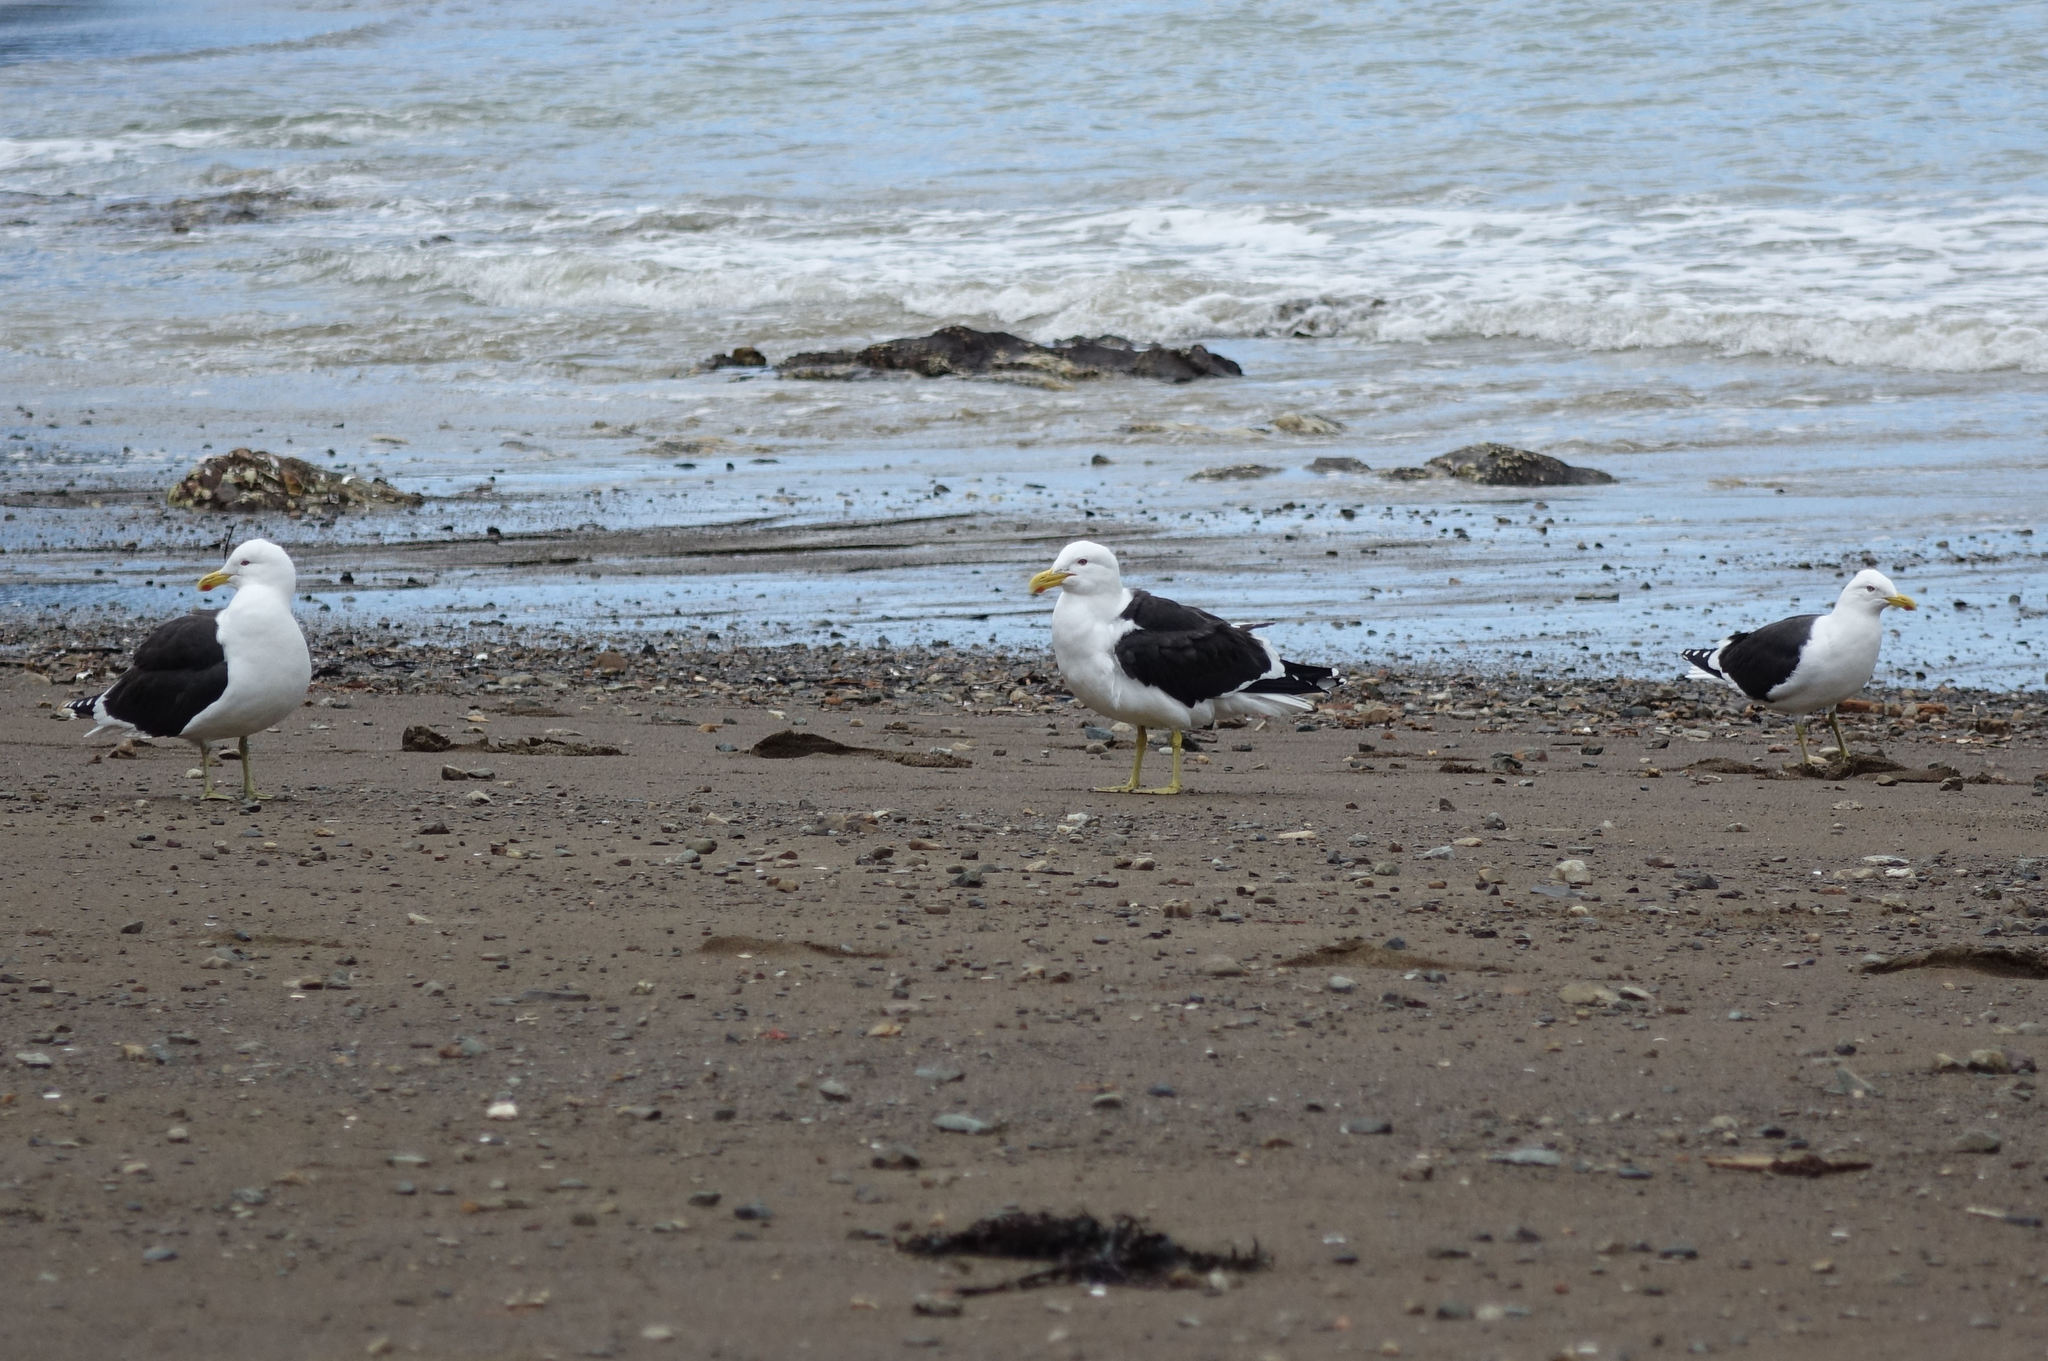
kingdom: Animalia
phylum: Chordata
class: Aves
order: Charadriiformes
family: Laridae
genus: Larus
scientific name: Larus dominicanus
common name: Kelp gull
